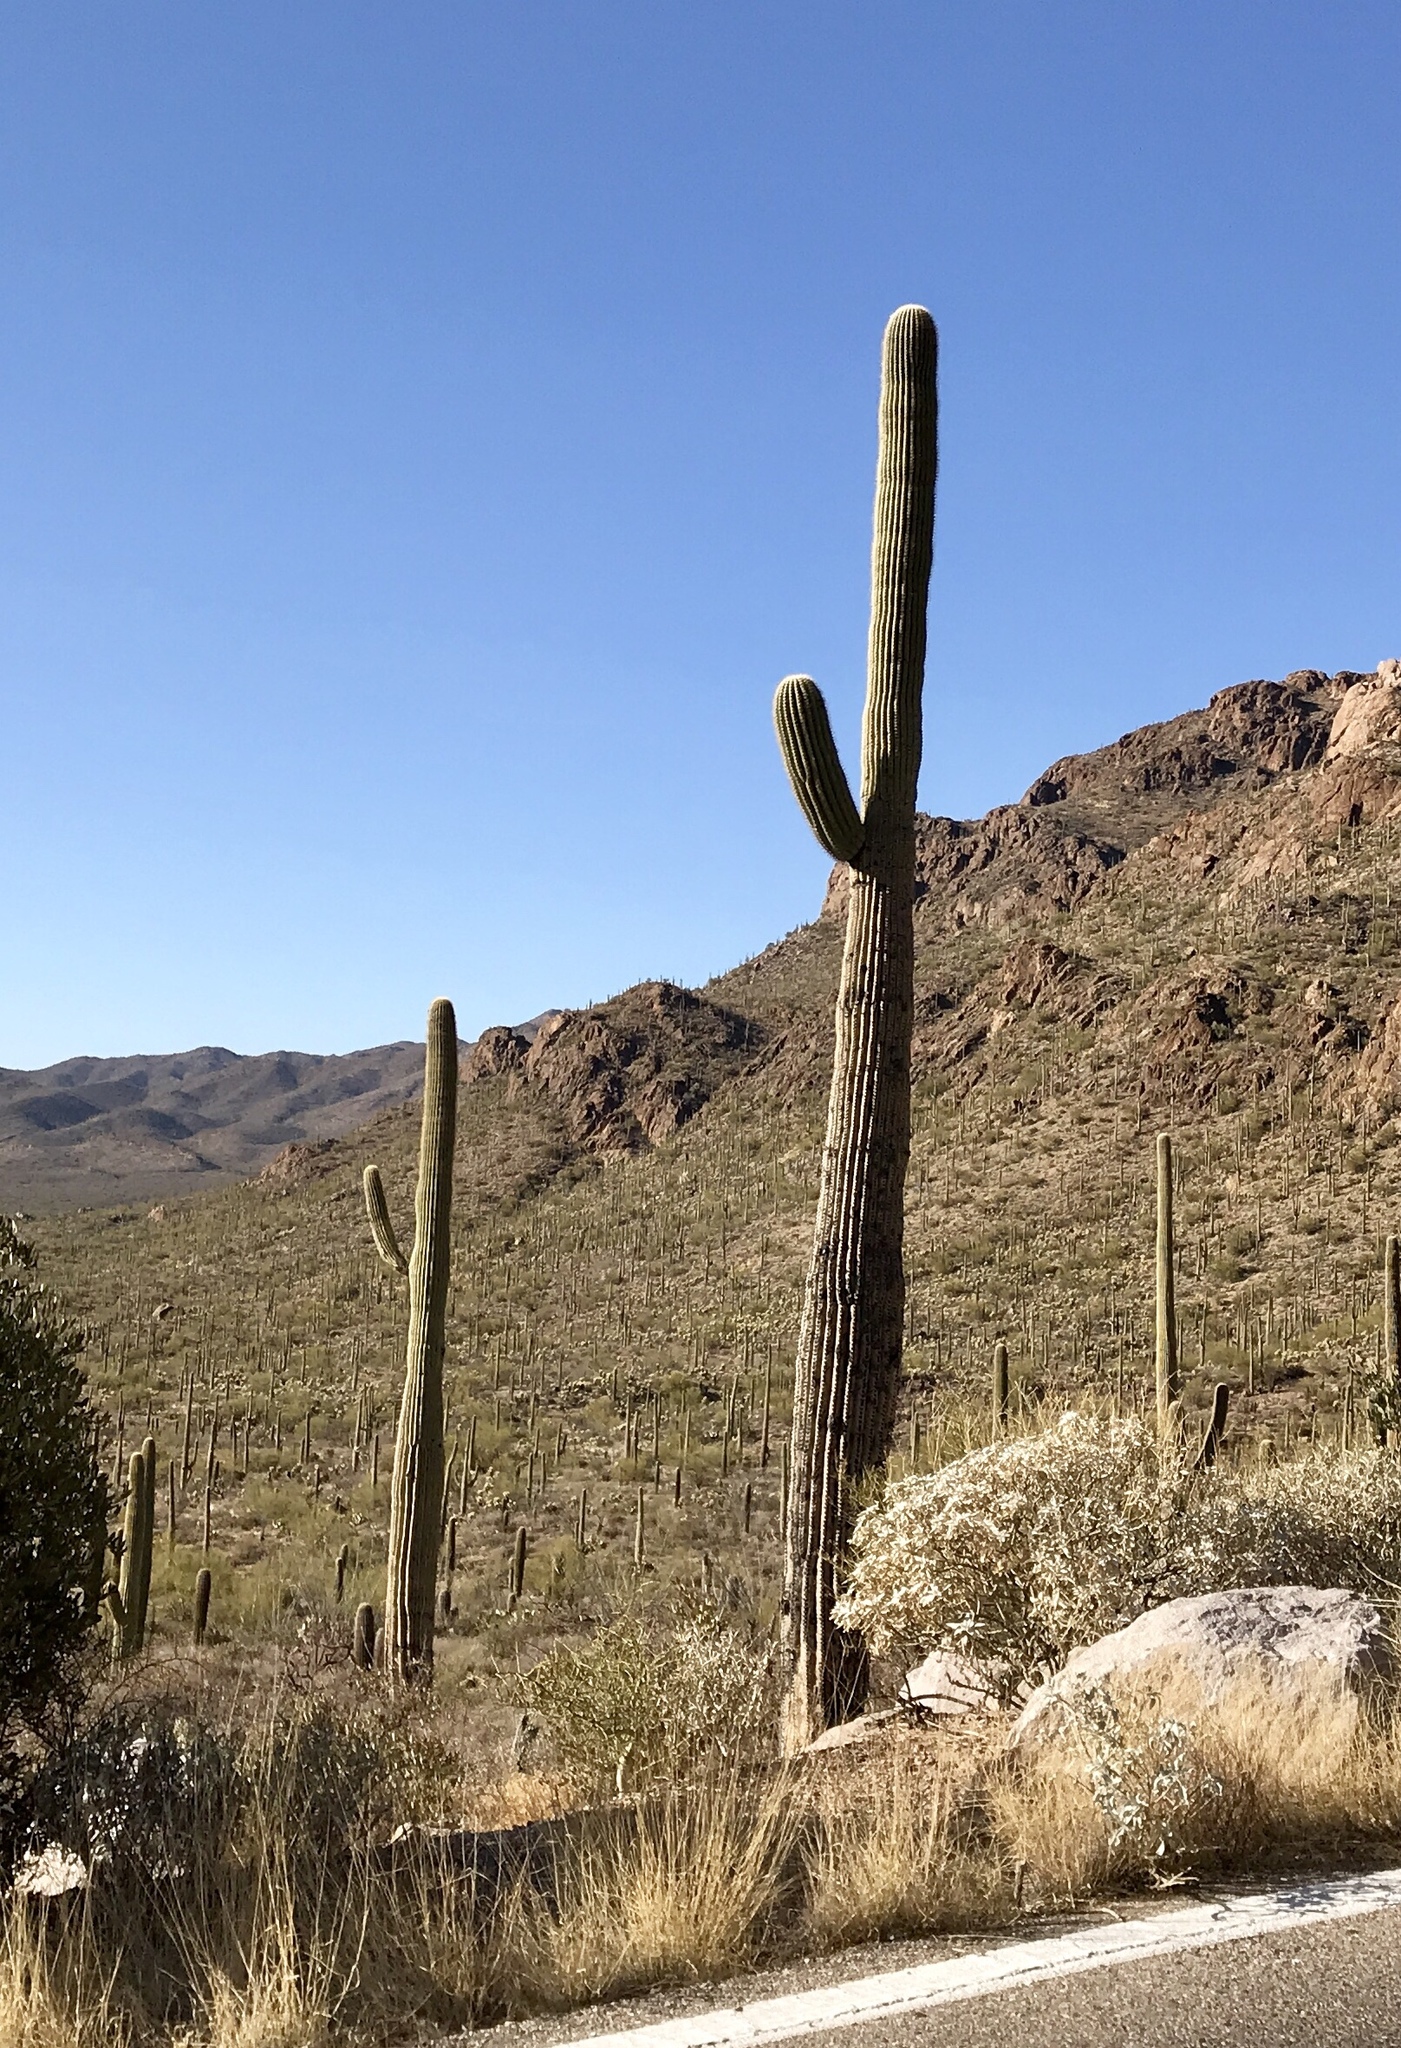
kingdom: Plantae
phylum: Tracheophyta
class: Magnoliopsida
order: Caryophyllales
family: Cactaceae
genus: Carnegiea
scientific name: Carnegiea gigantea
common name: Saguaro
